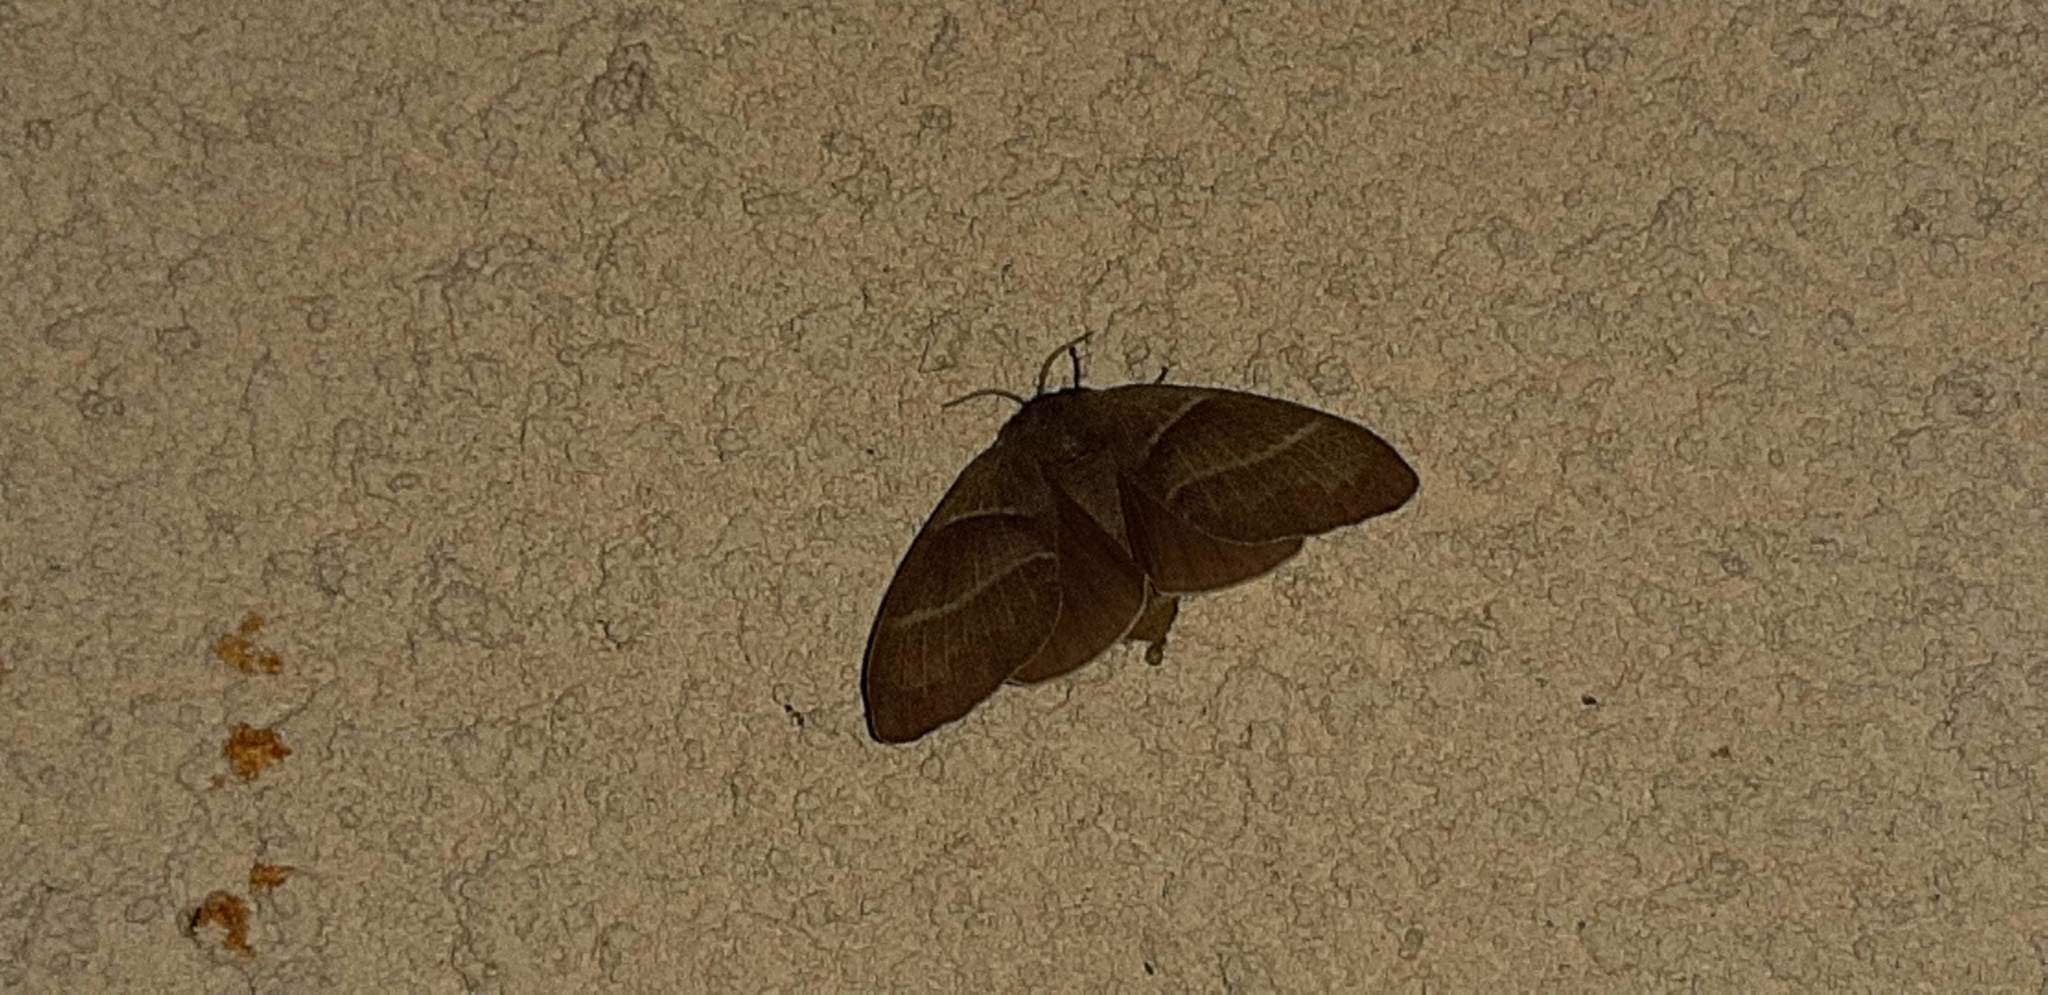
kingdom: Animalia
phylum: Arthropoda
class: Insecta
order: Lepidoptera
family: Lasiocampidae
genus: Macrothylacia
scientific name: Macrothylacia rubi
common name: Fox moth
